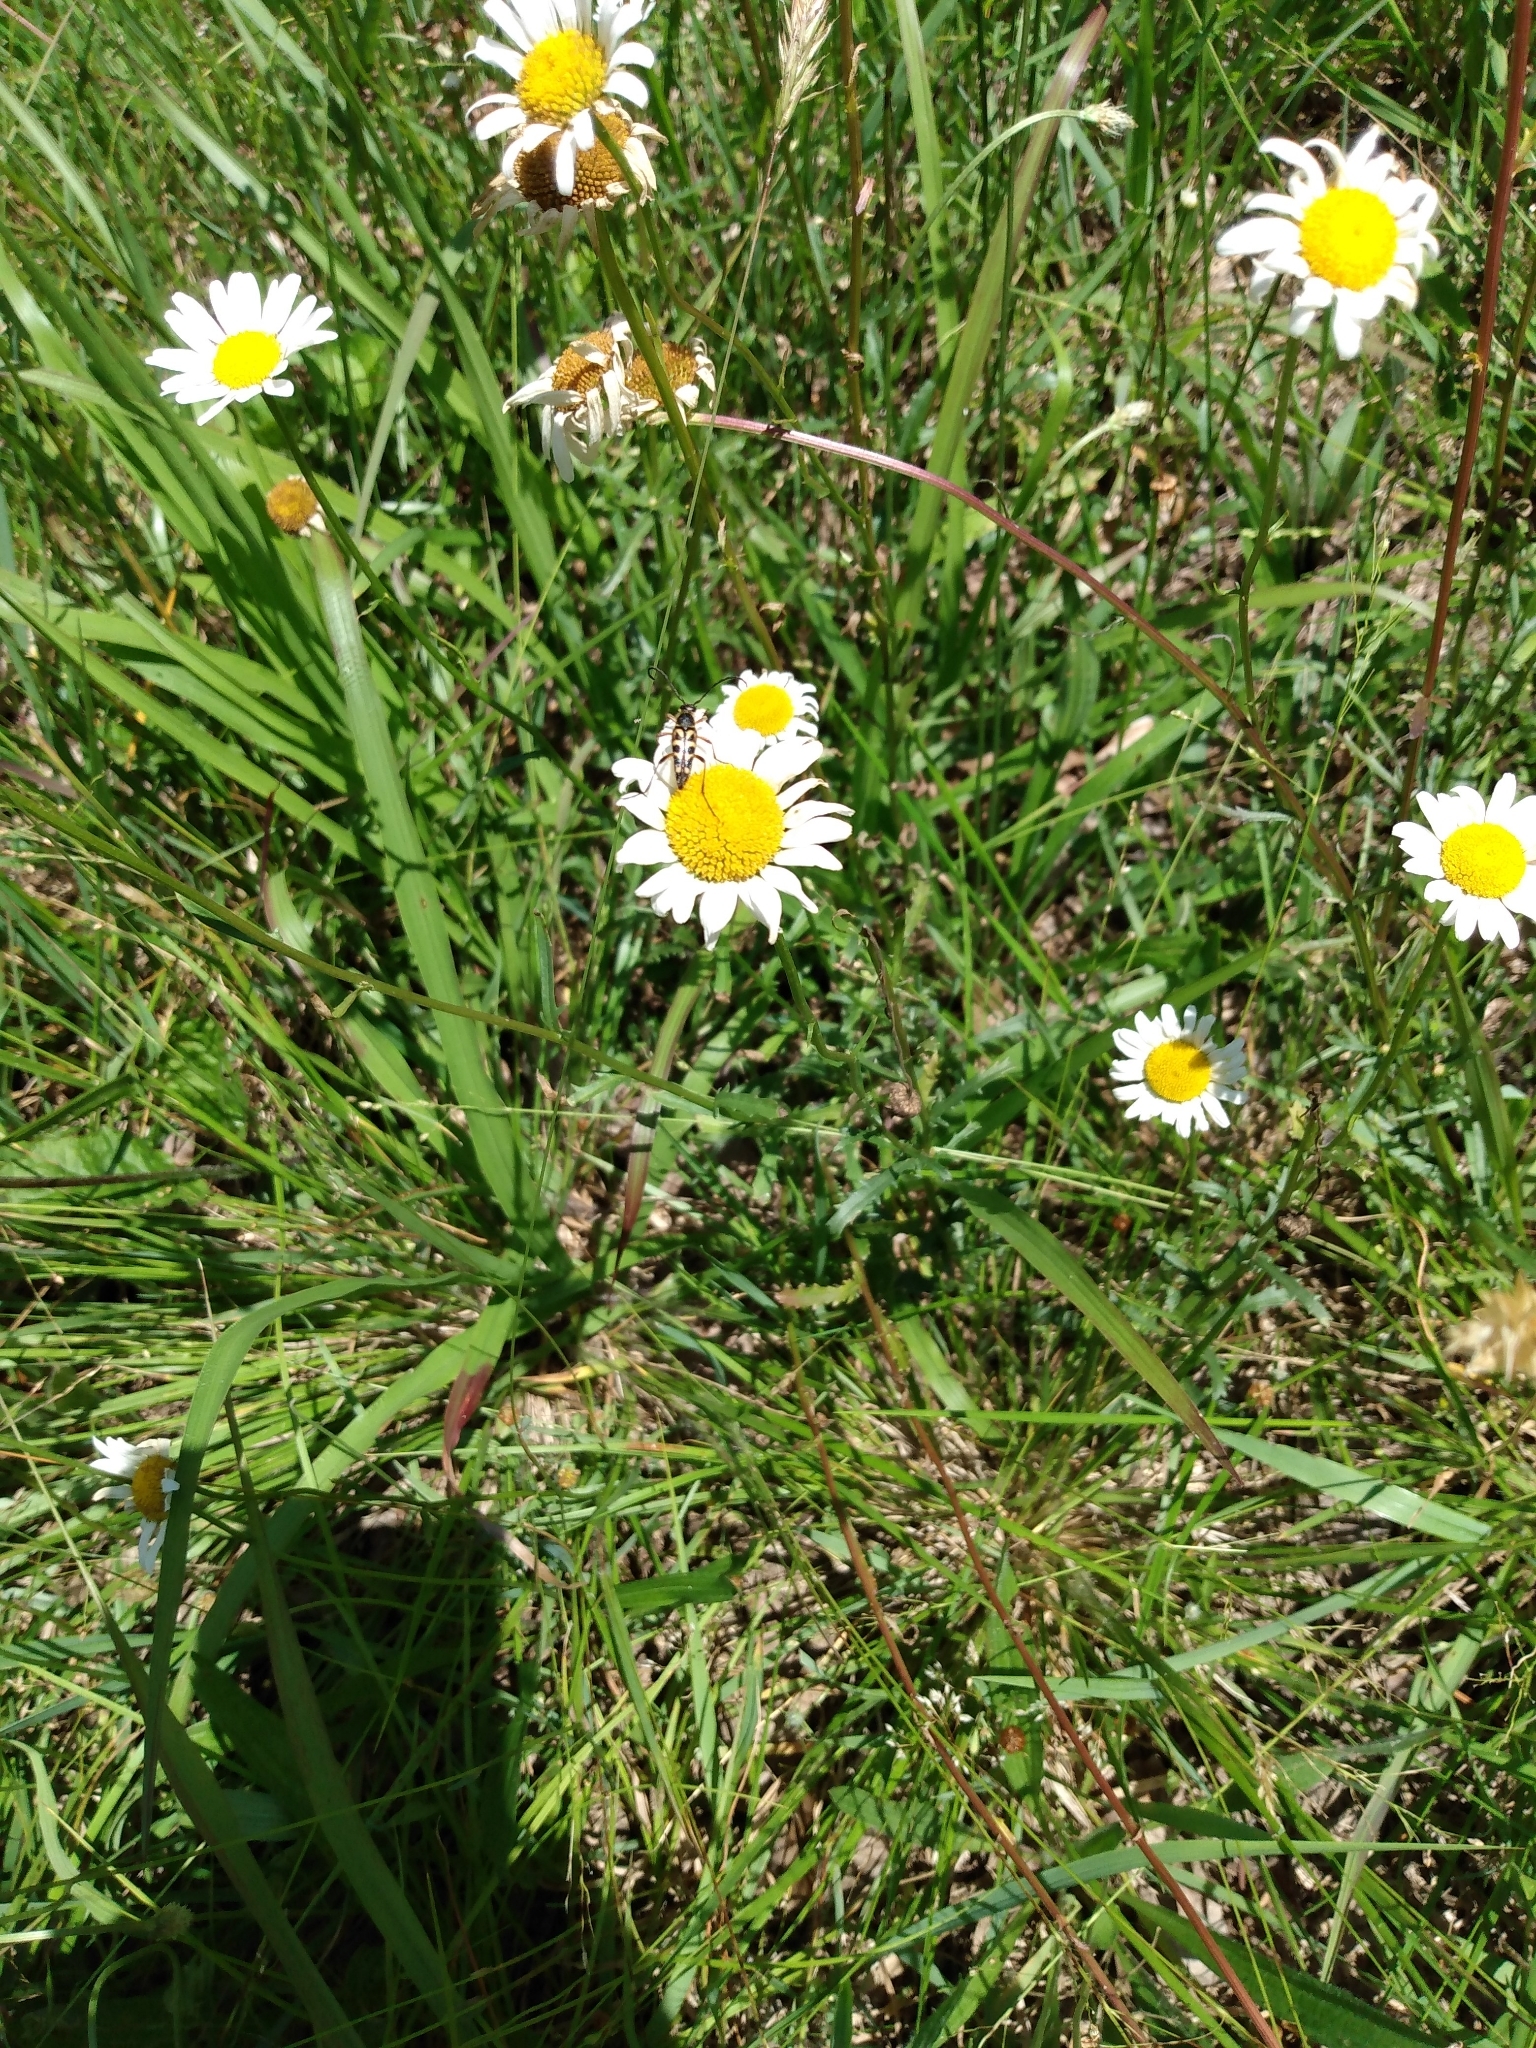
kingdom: Plantae
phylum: Tracheophyta
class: Magnoliopsida
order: Asterales
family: Asteraceae
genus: Leucanthemum
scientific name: Leucanthemum vulgare
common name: Oxeye daisy
